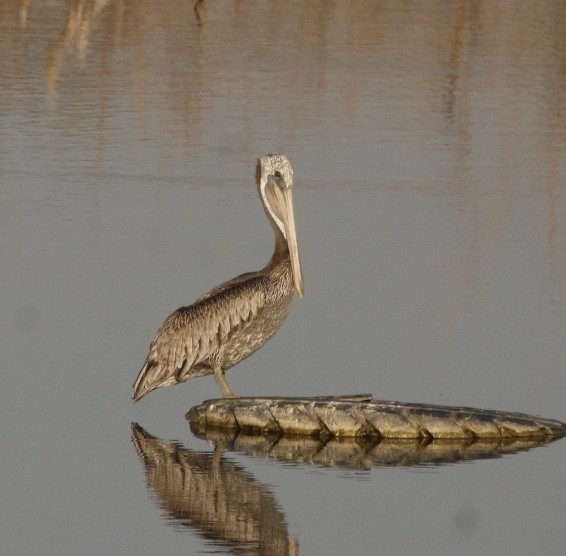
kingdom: Animalia
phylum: Chordata
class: Aves
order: Pelecaniformes
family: Pelecanidae
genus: Pelecanus
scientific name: Pelecanus occidentalis
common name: Brown pelican
